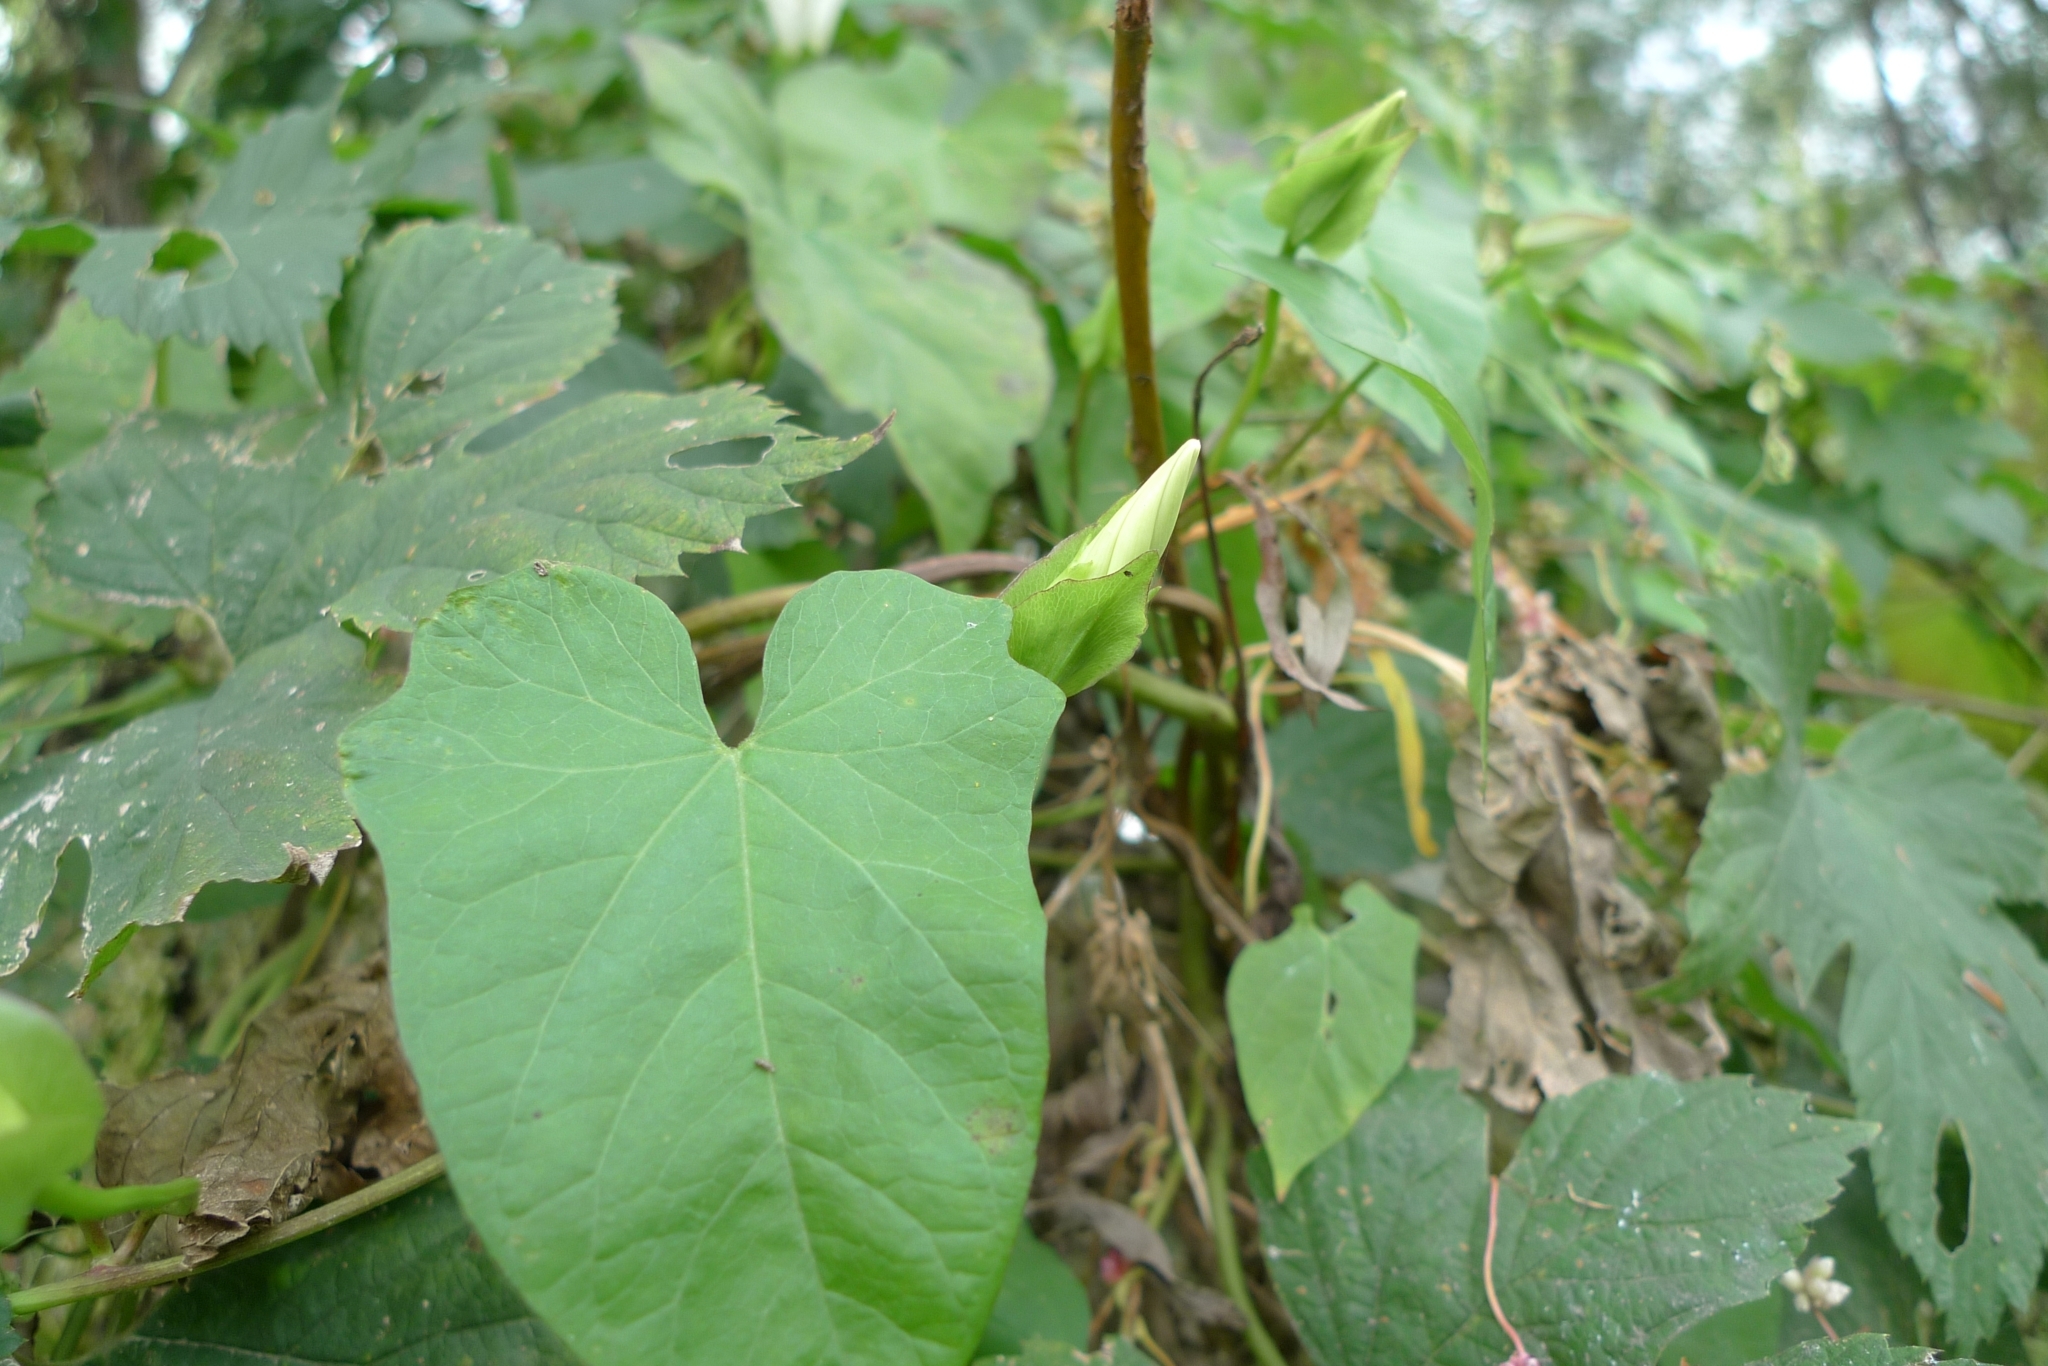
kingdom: Plantae
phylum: Tracheophyta
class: Magnoliopsida
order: Solanales
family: Convolvulaceae
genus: Calystegia
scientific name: Calystegia sepium
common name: Hedge bindweed
